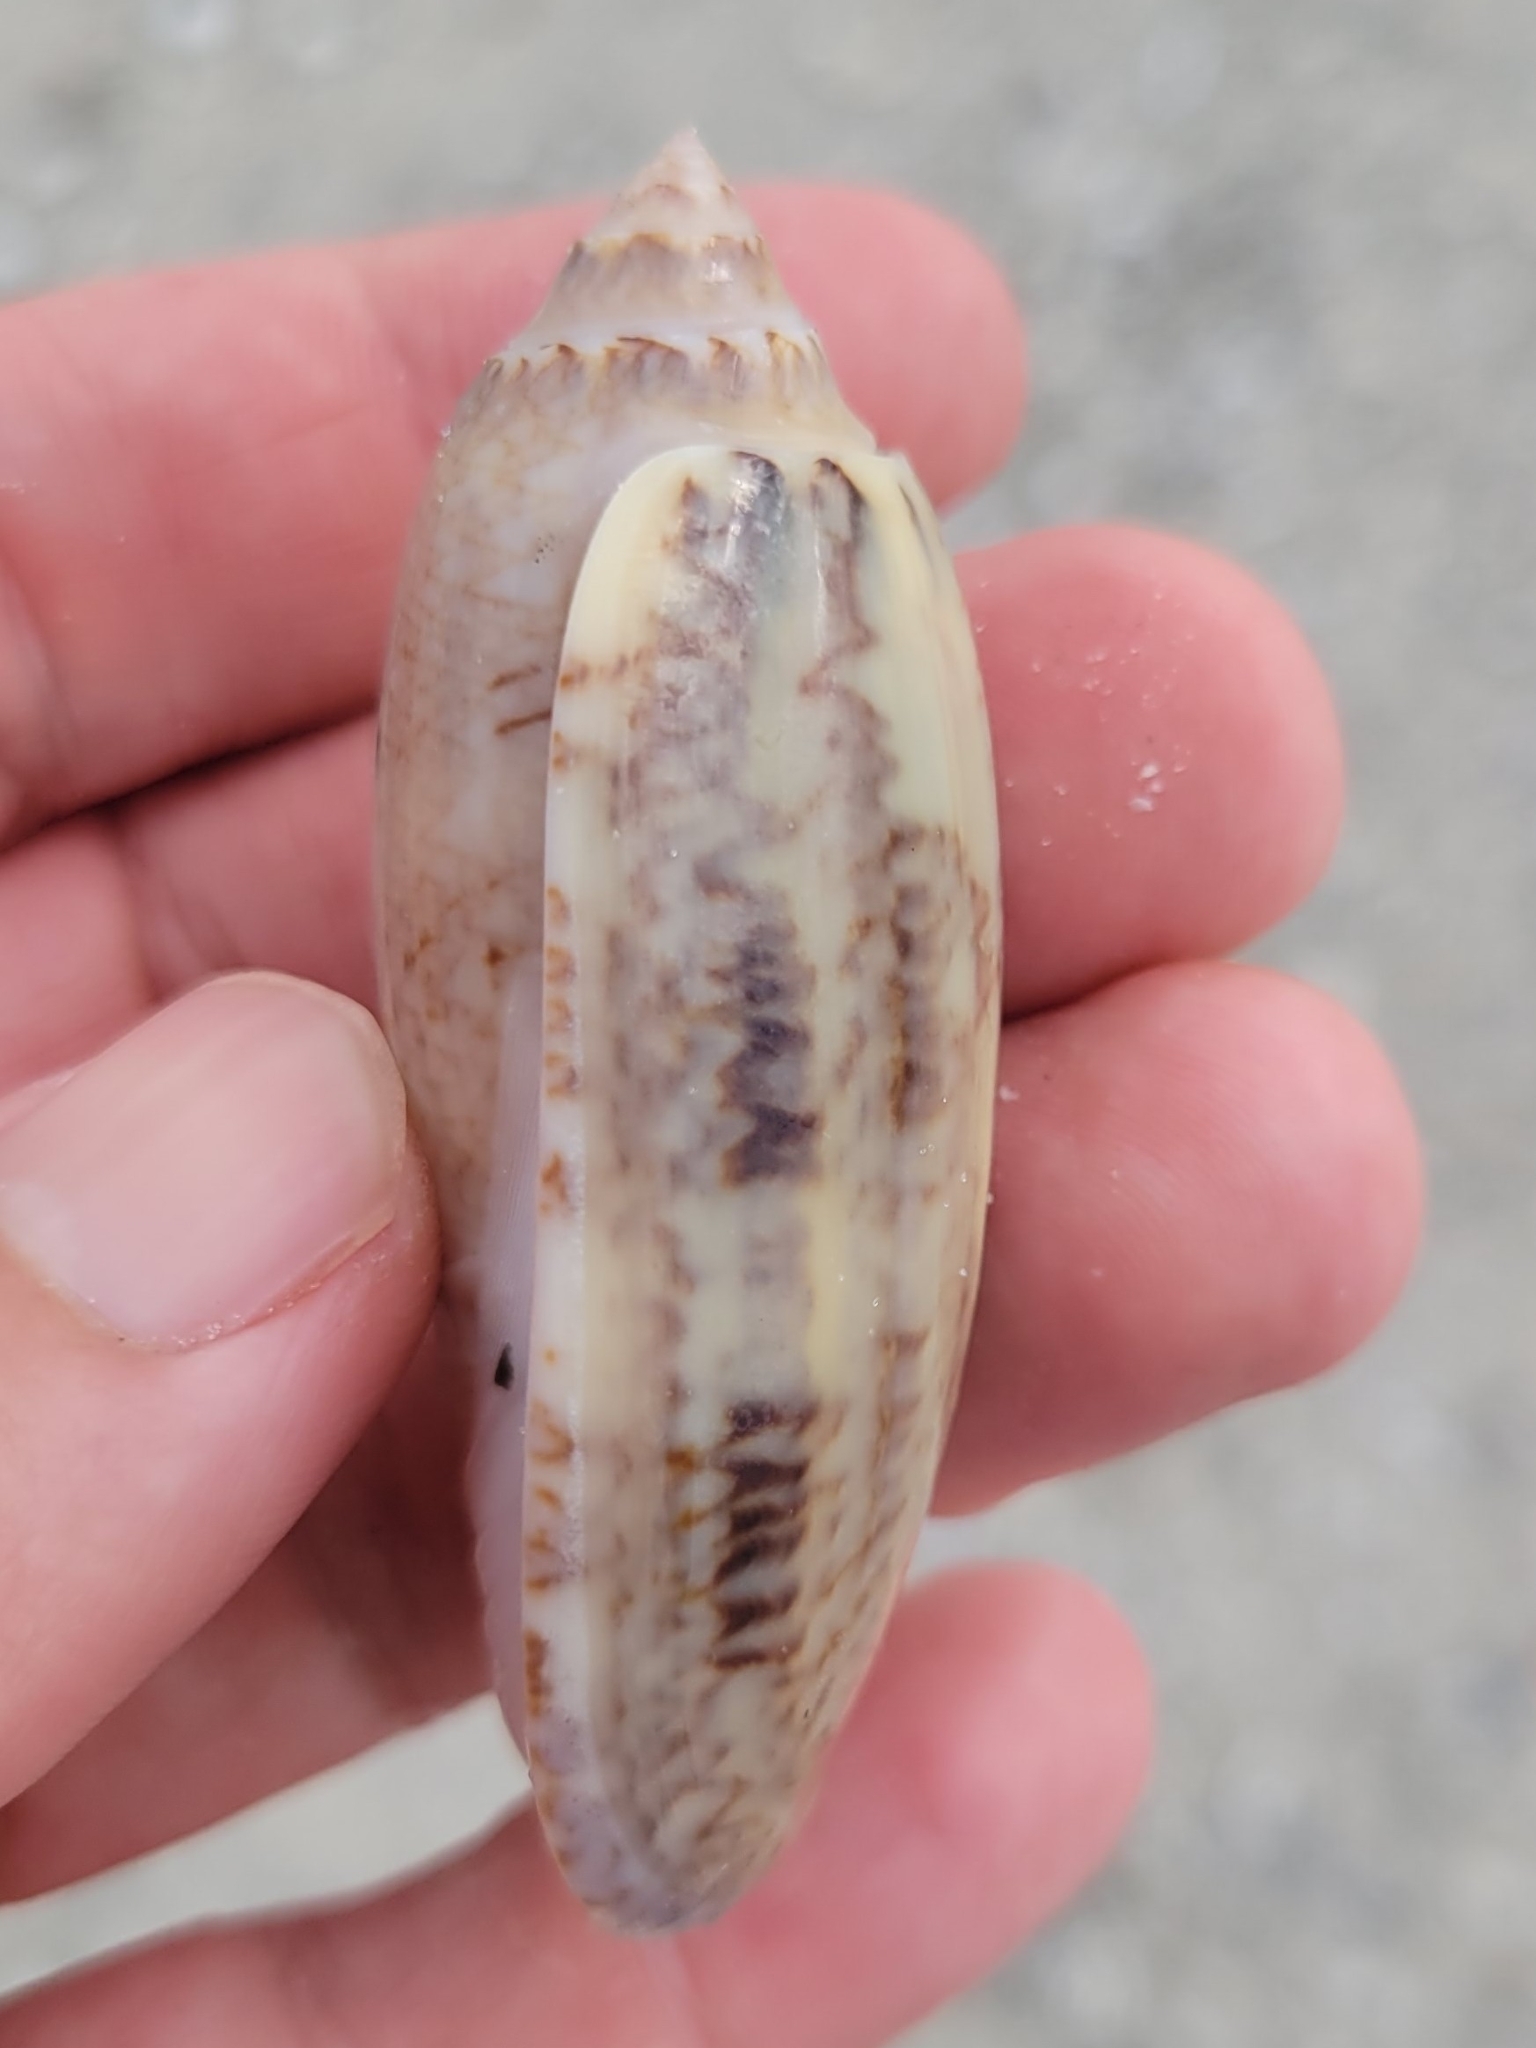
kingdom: Animalia
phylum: Mollusca
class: Gastropoda
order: Neogastropoda
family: Olividae
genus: Oliva
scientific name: Oliva sayana
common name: Lettered olive
